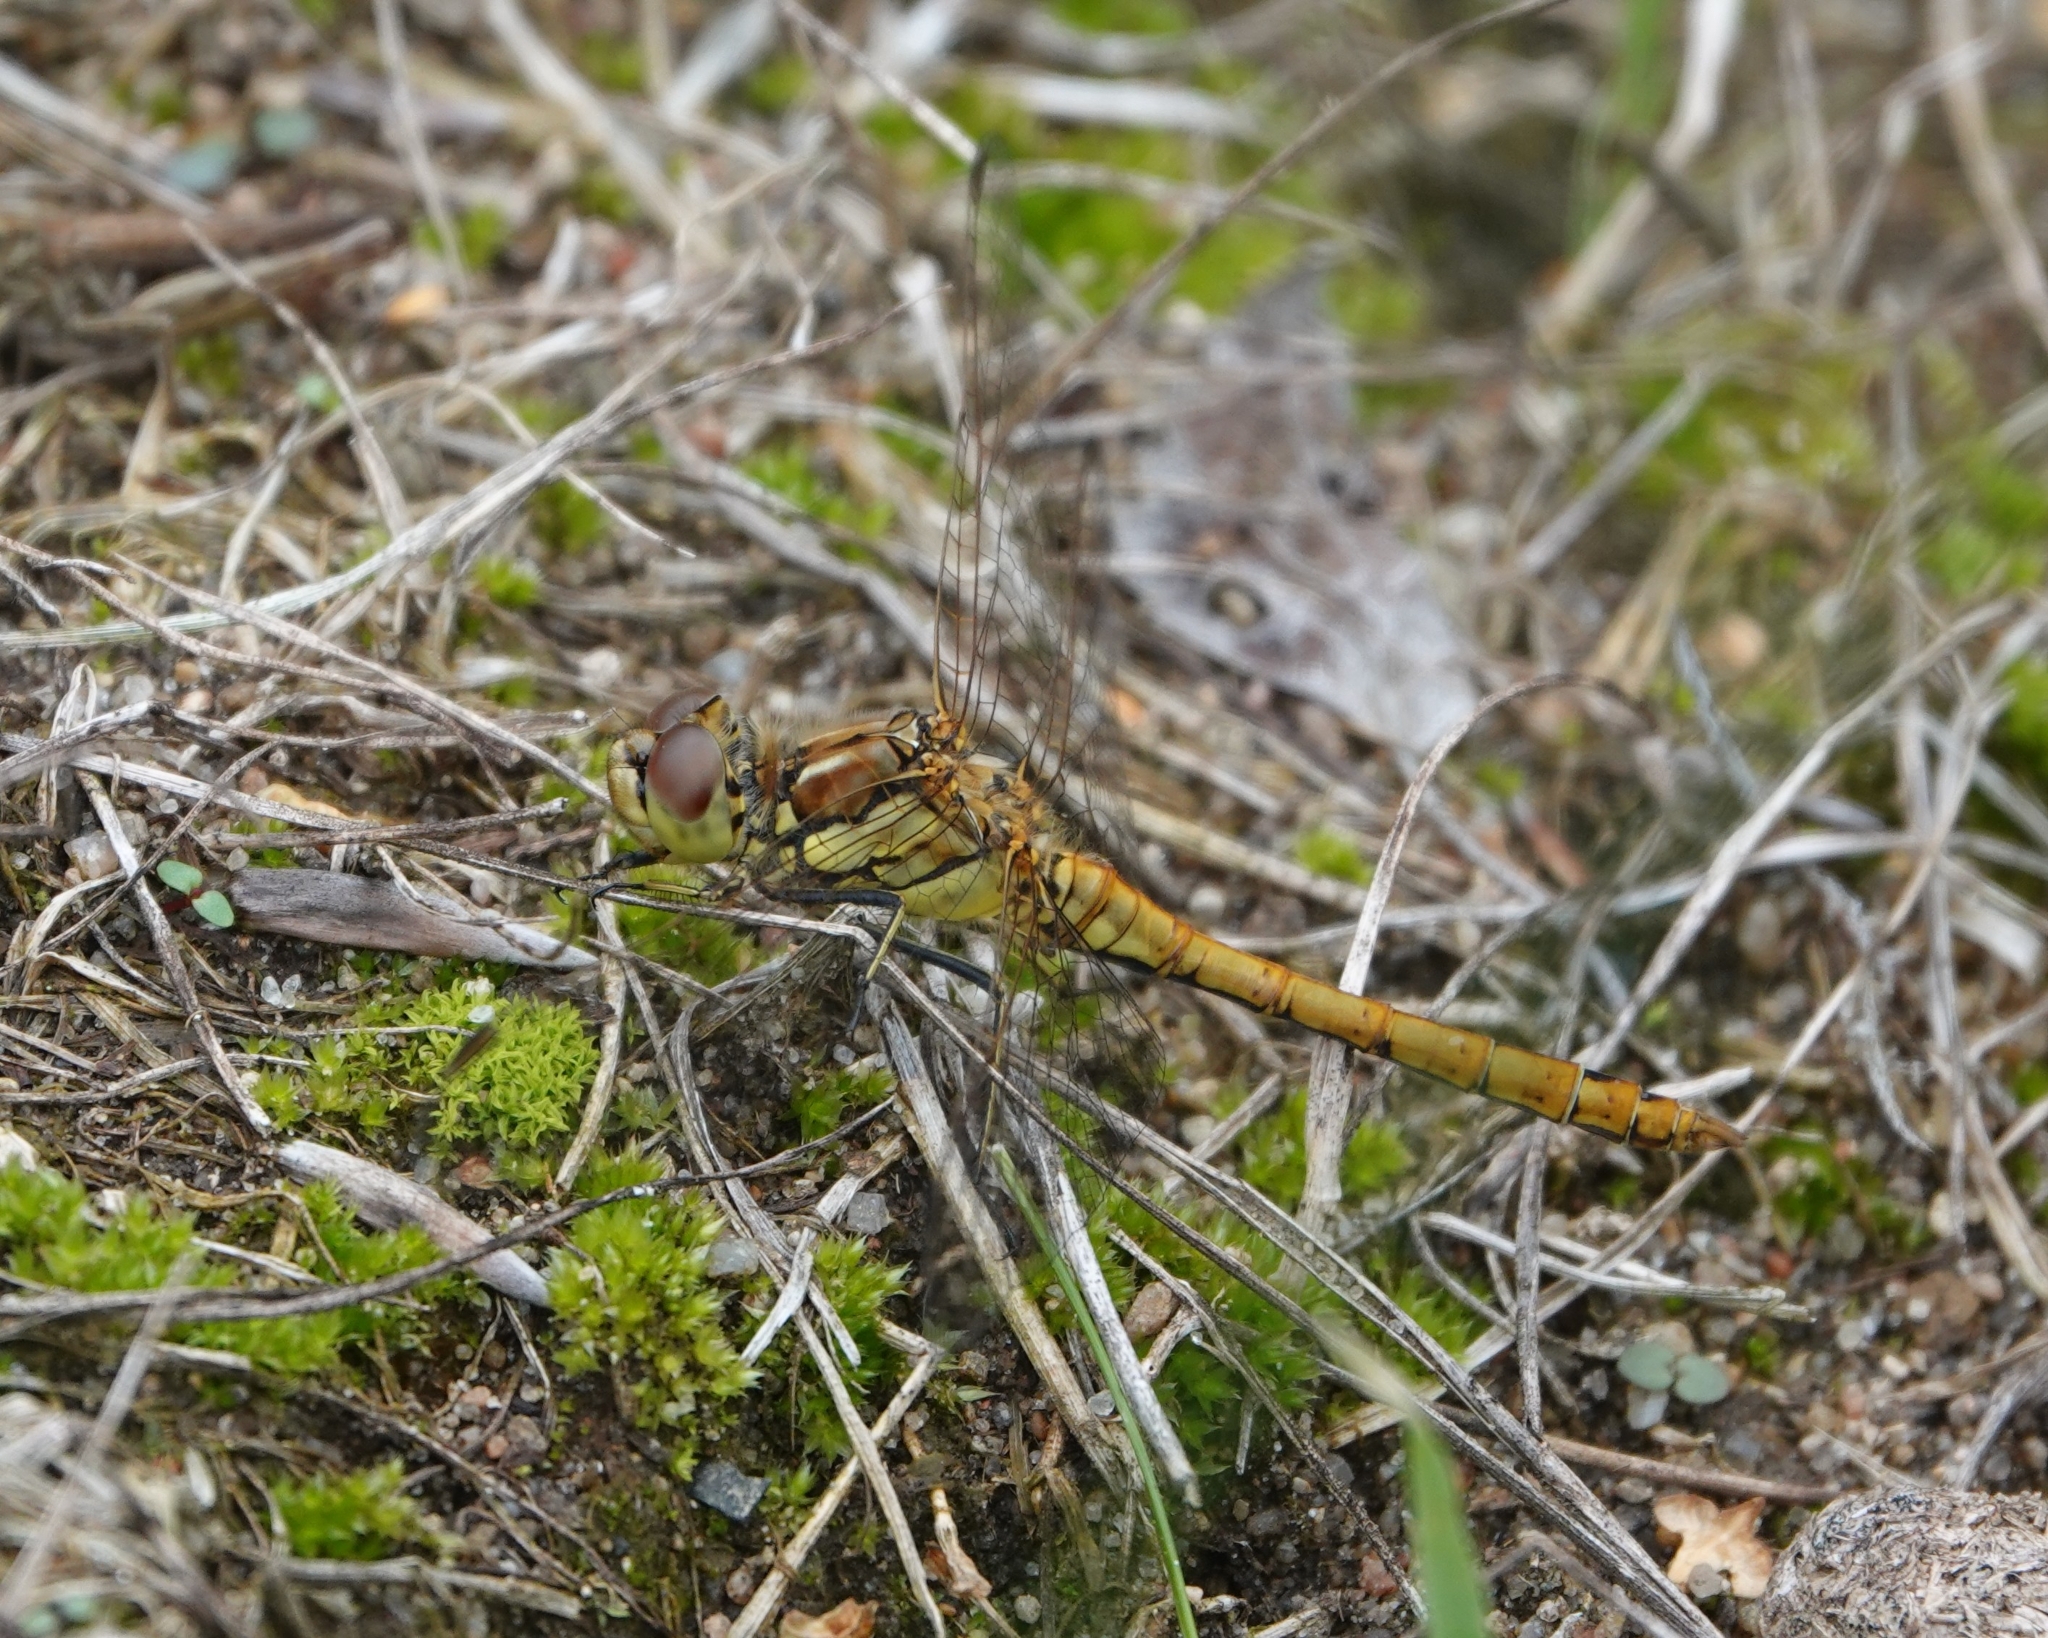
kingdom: Animalia
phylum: Arthropoda
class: Insecta
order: Odonata
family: Libellulidae
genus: Sympetrum
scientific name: Sympetrum vulgatum
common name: Vagrant darter
